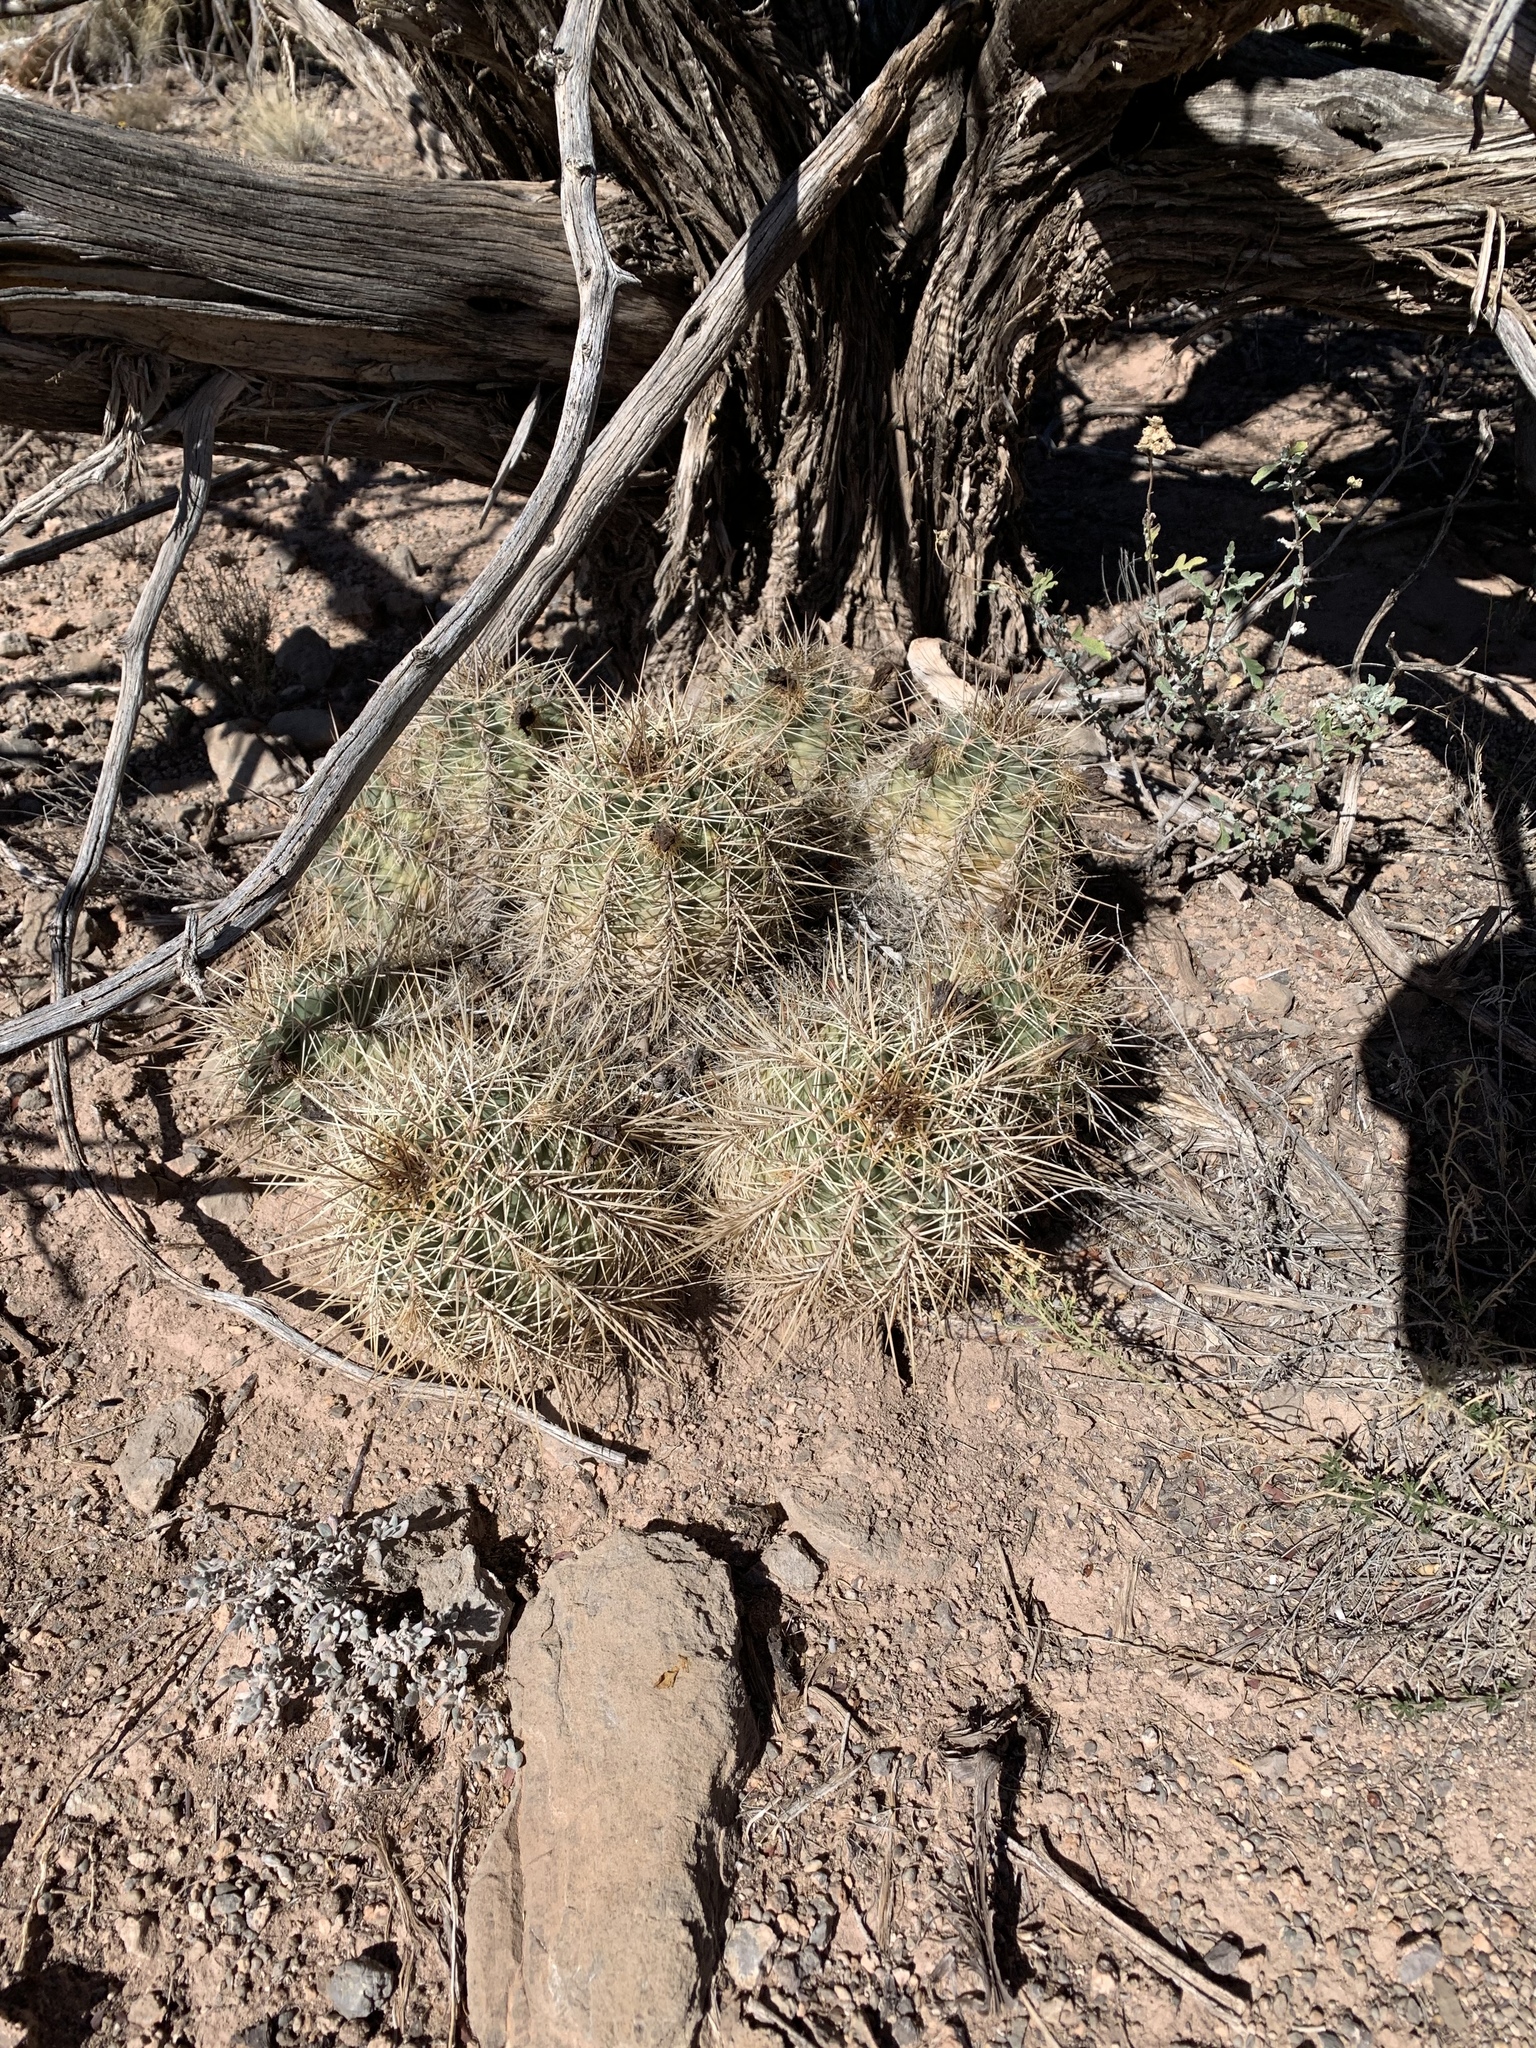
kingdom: Plantae
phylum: Tracheophyta
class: Magnoliopsida
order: Caryophyllales
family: Cactaceae
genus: Echinocereus
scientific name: Echinocereus coccineus
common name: Scarlet hedgehog cactus
